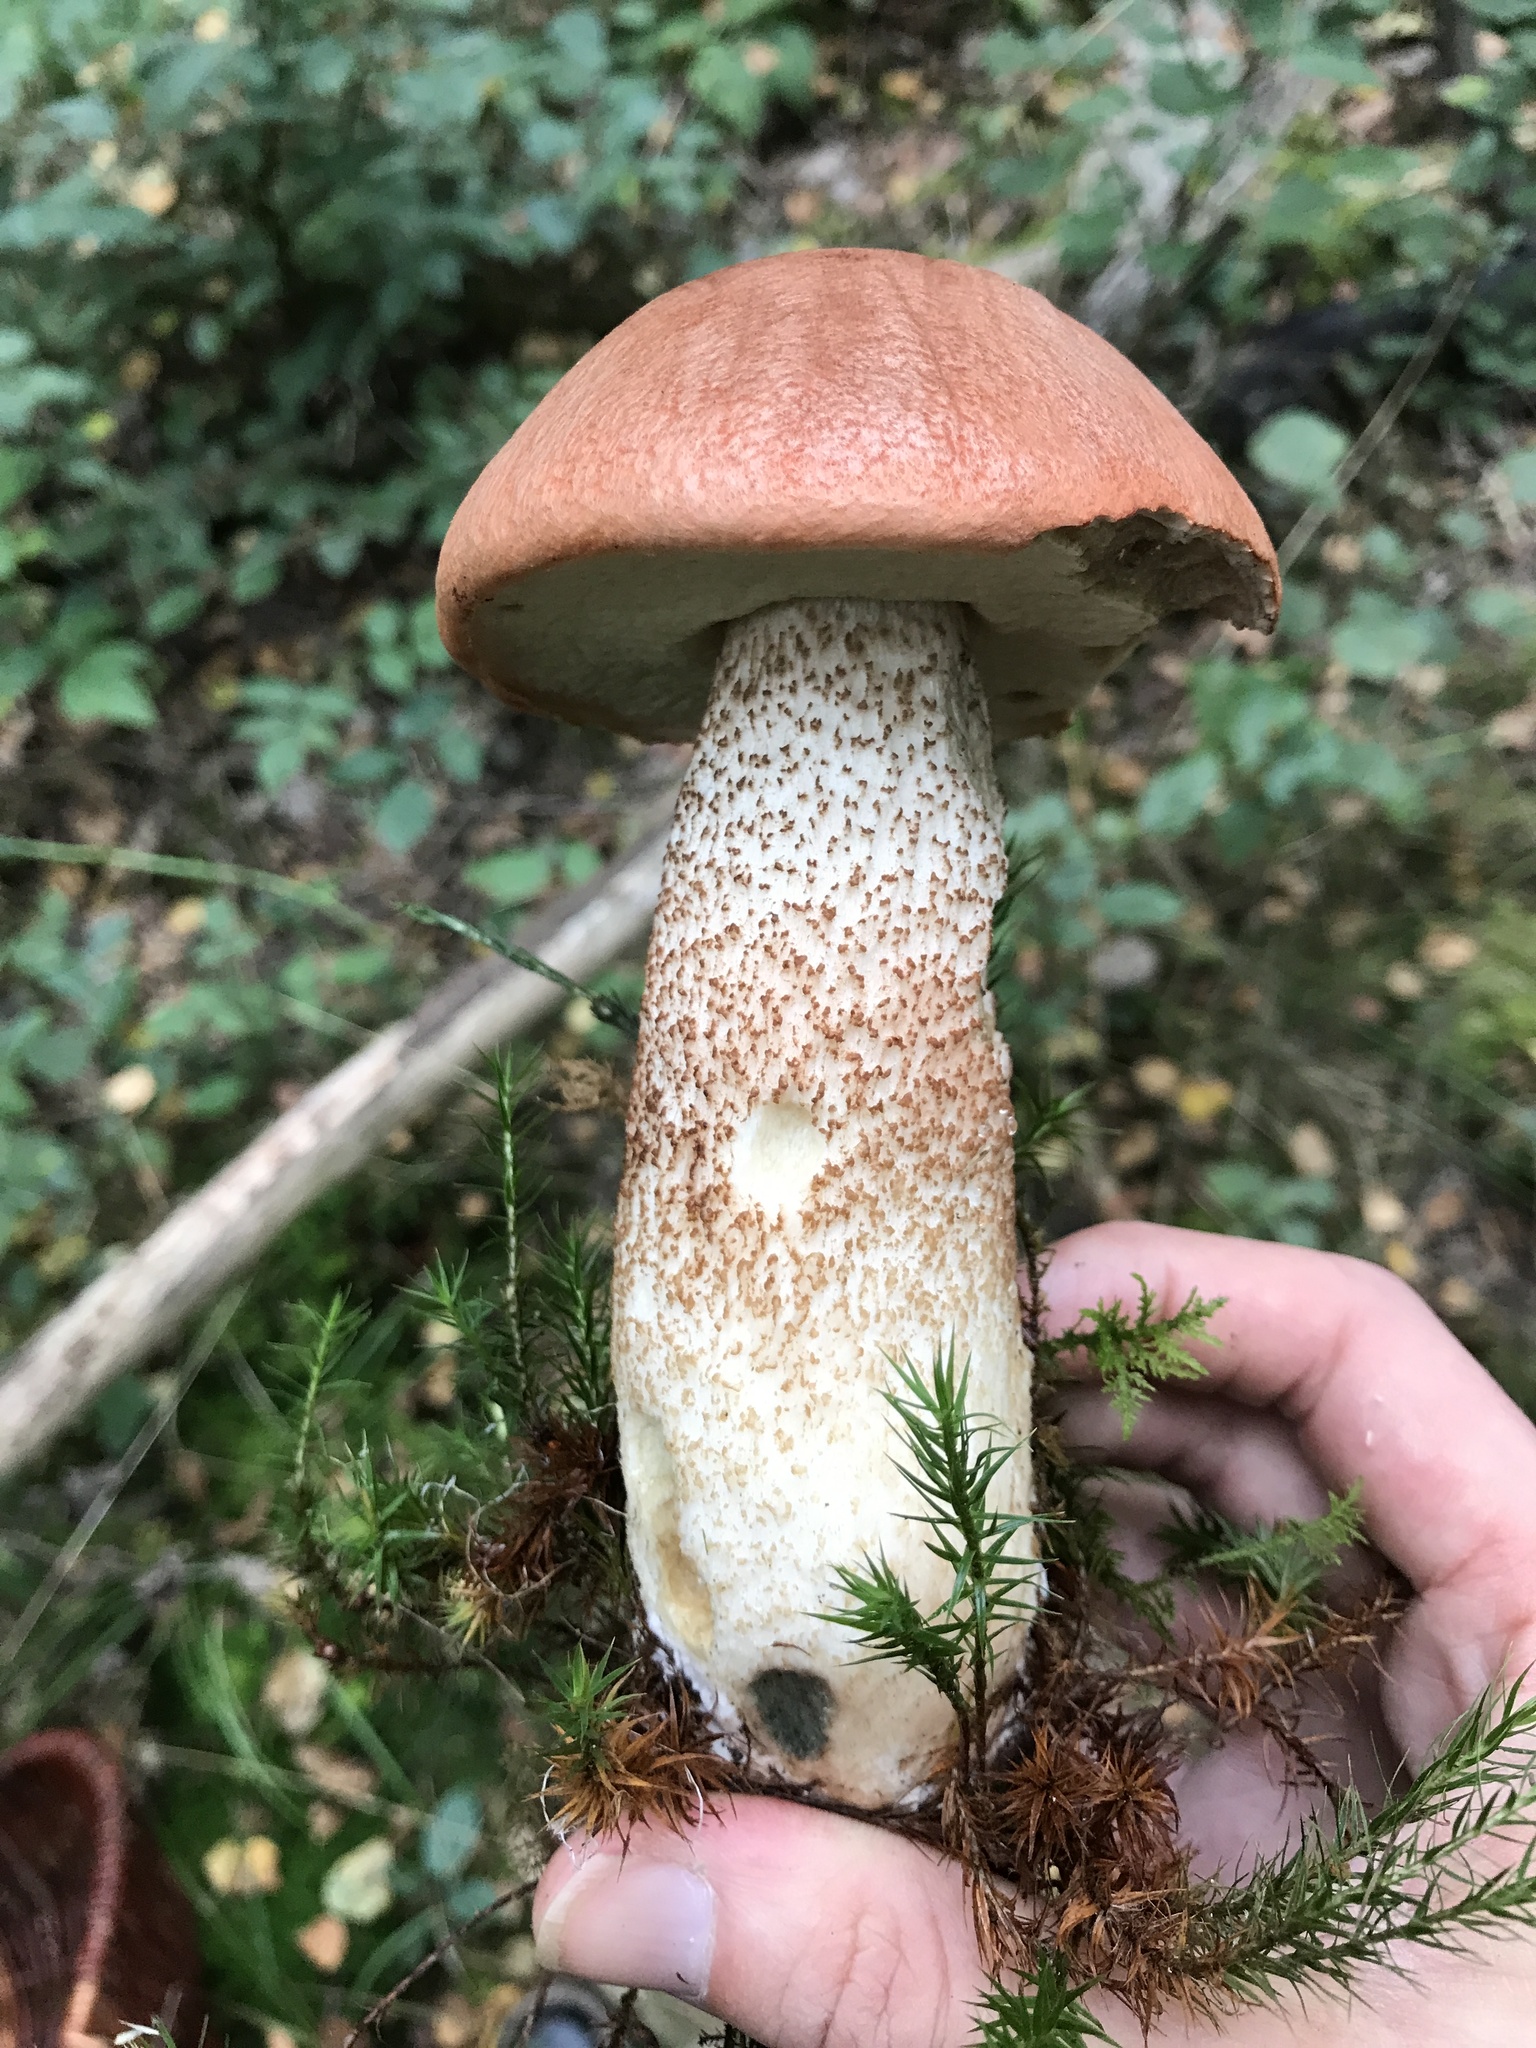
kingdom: Fungi
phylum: Basidiomycota
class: Agaricomycetes
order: Boletales
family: Boletaceae
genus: Leccinum
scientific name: Leccinum aurantiacum
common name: Orange bolete
